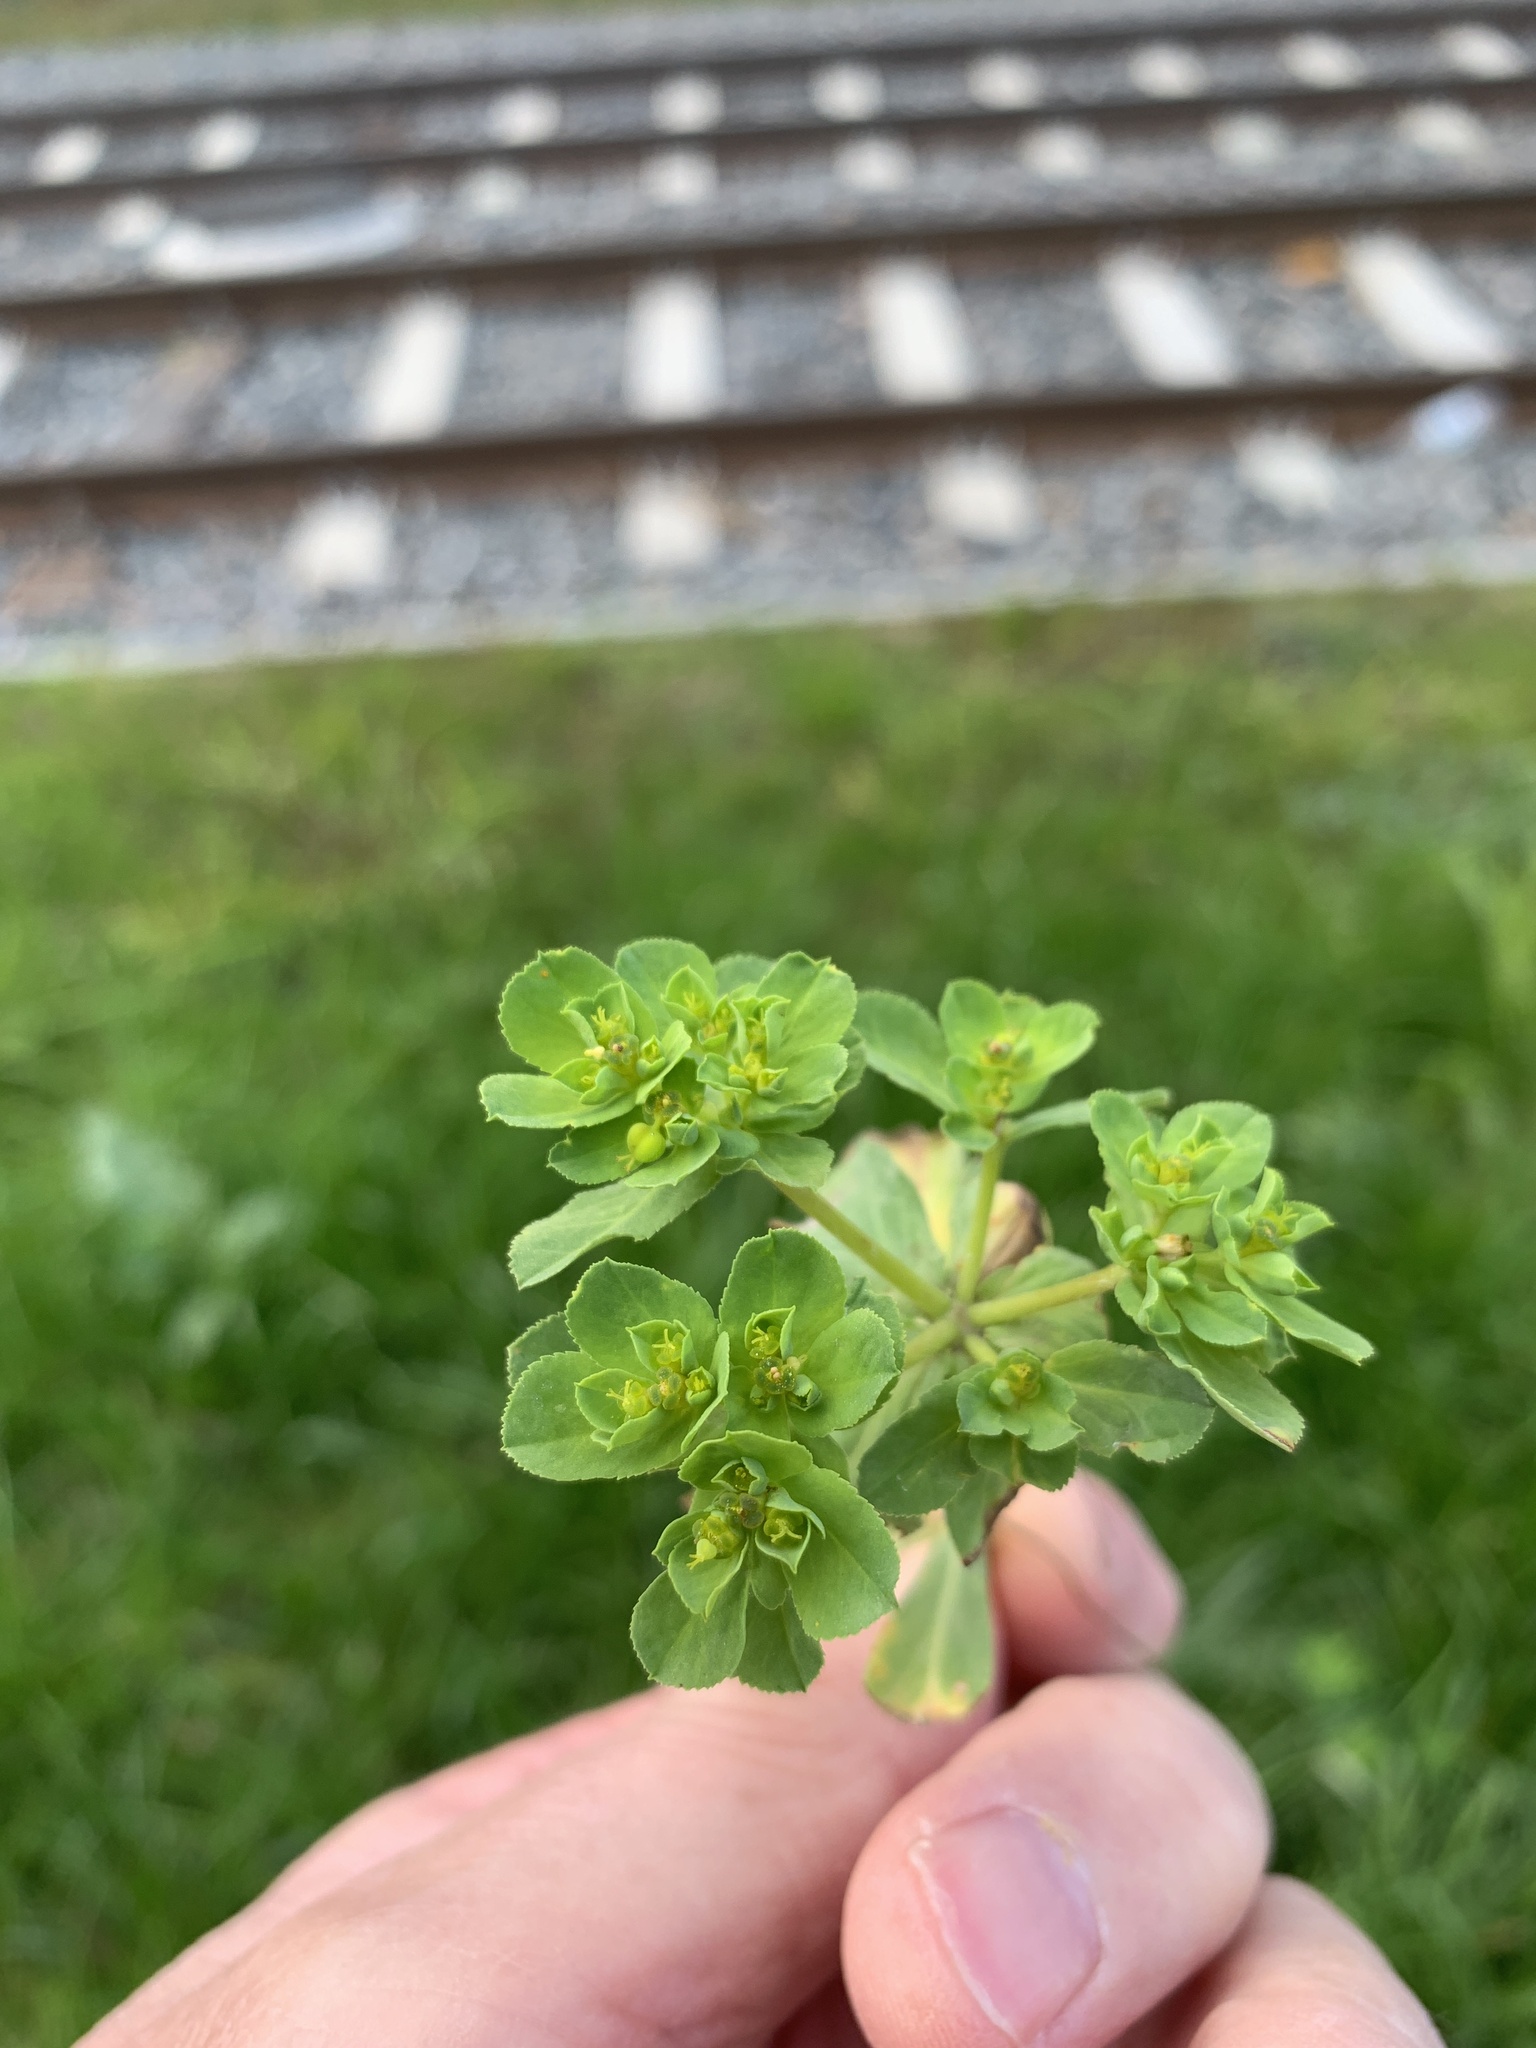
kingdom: Plantae
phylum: Tracheophyta
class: Magnoliopsida
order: Malpighiales
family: Euphorbiaceae
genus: Euphorbia
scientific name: Euphorbia helioscopia
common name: Sun spurge
